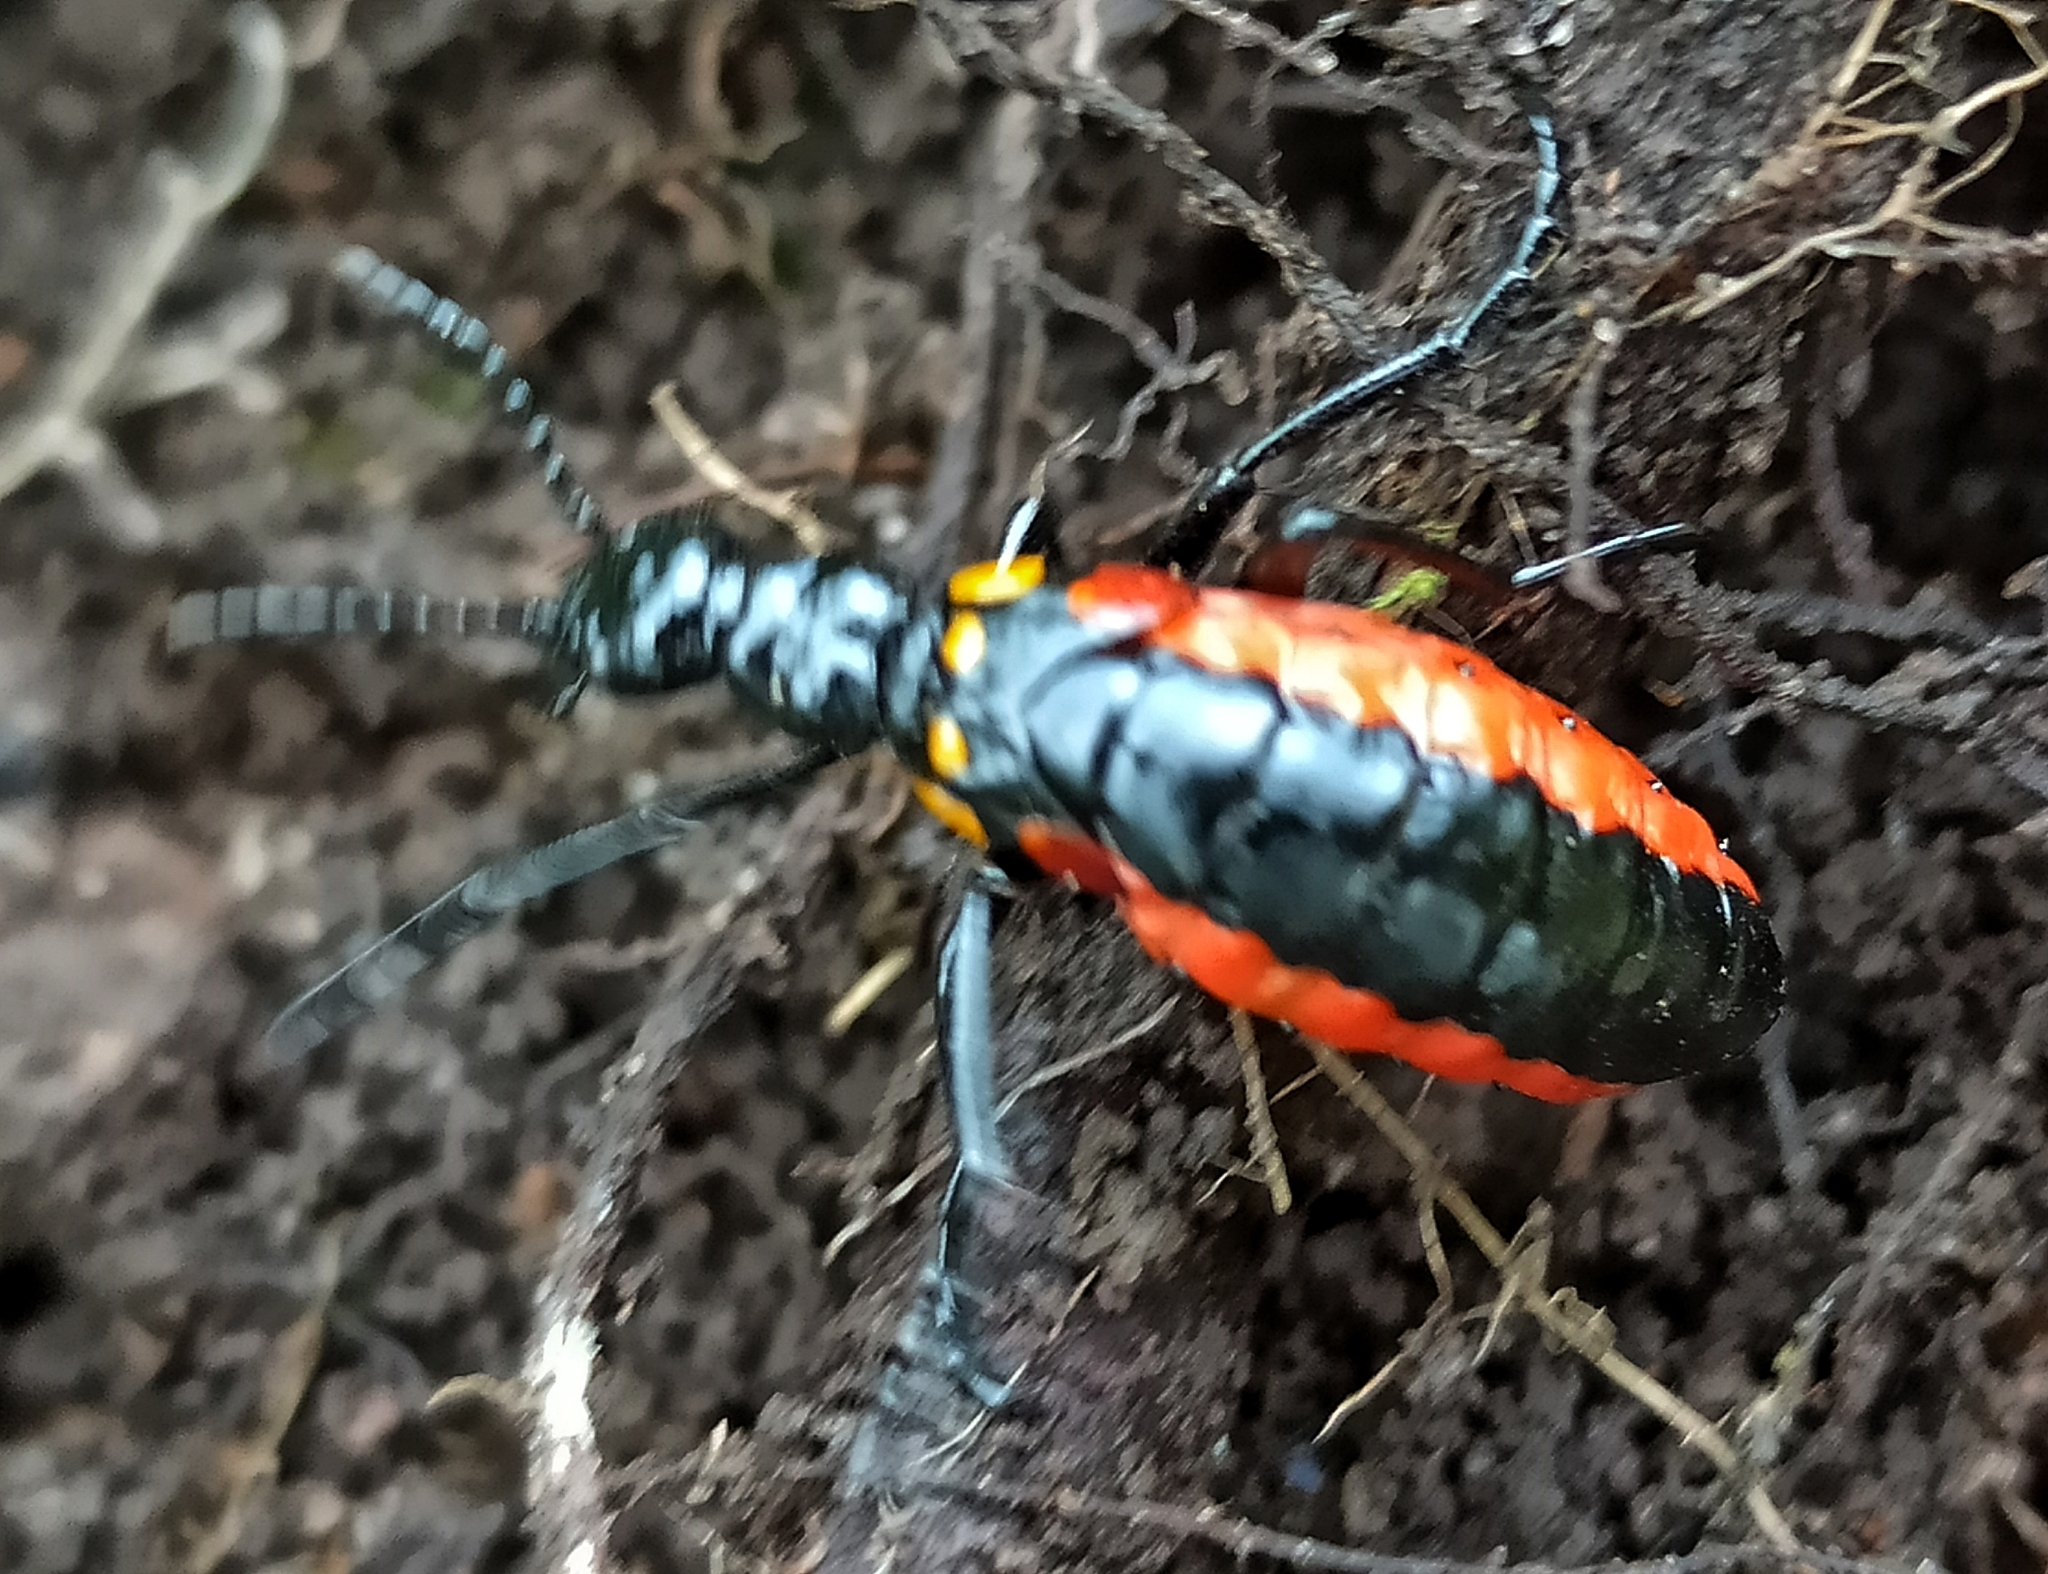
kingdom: Animalia
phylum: Arthropoda
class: Insecta
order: Coleoptera
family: Meloidae
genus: Pseudomeloe
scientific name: Pseudomeloe
